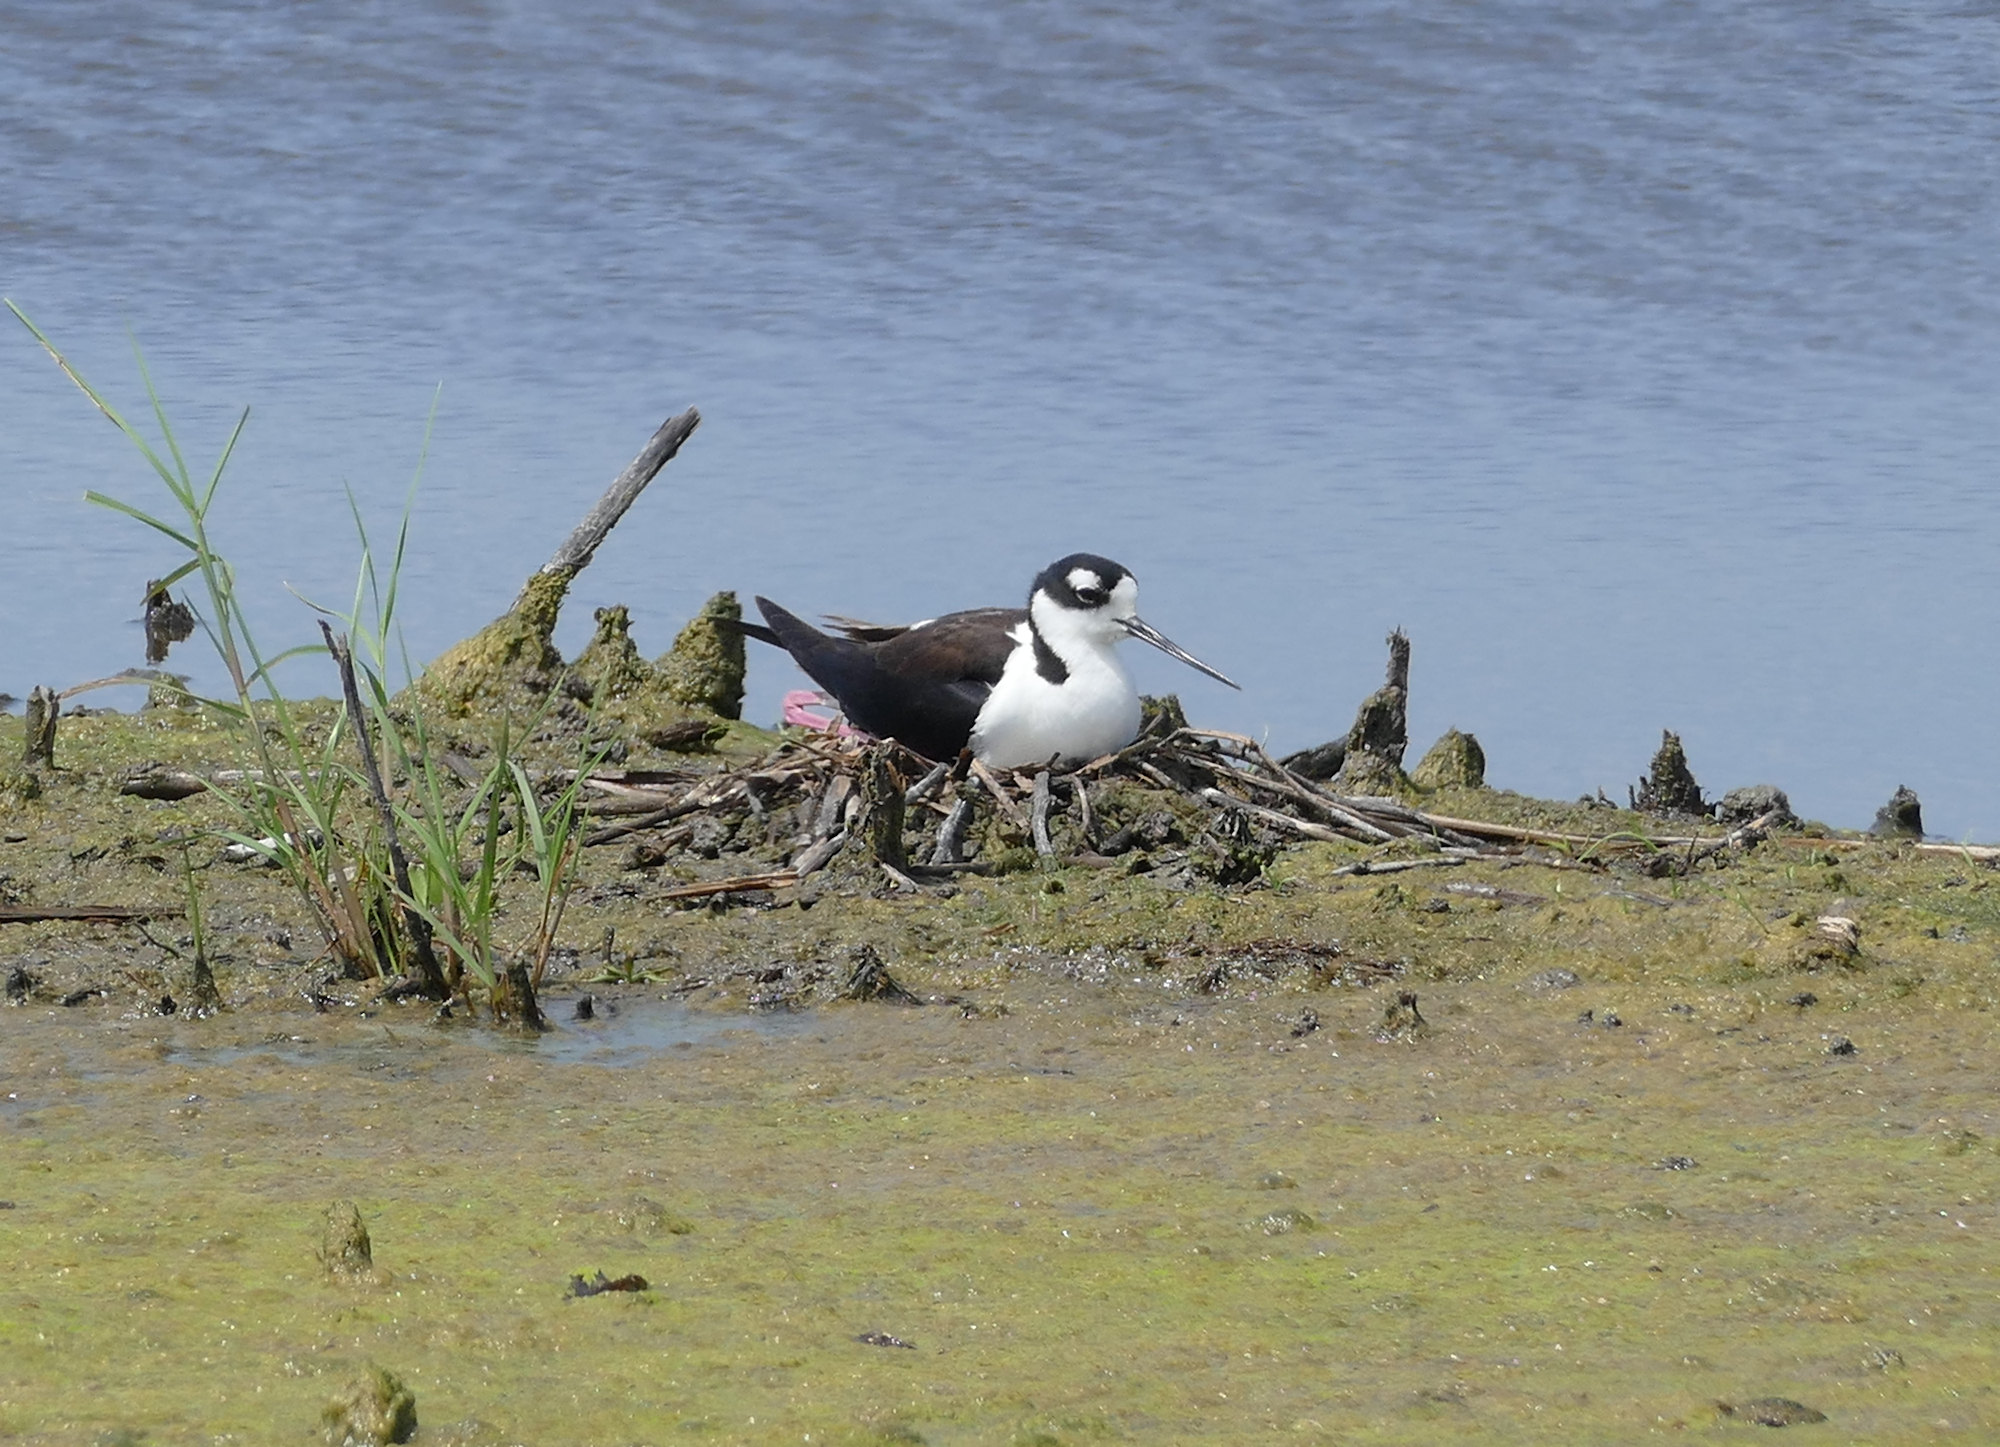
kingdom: Animalia
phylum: Chordata
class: Aves
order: Charadriiformes
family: Recurvirostridae
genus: Himantopus
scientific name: Himantopus mexicanus
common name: Black-necked stilt
